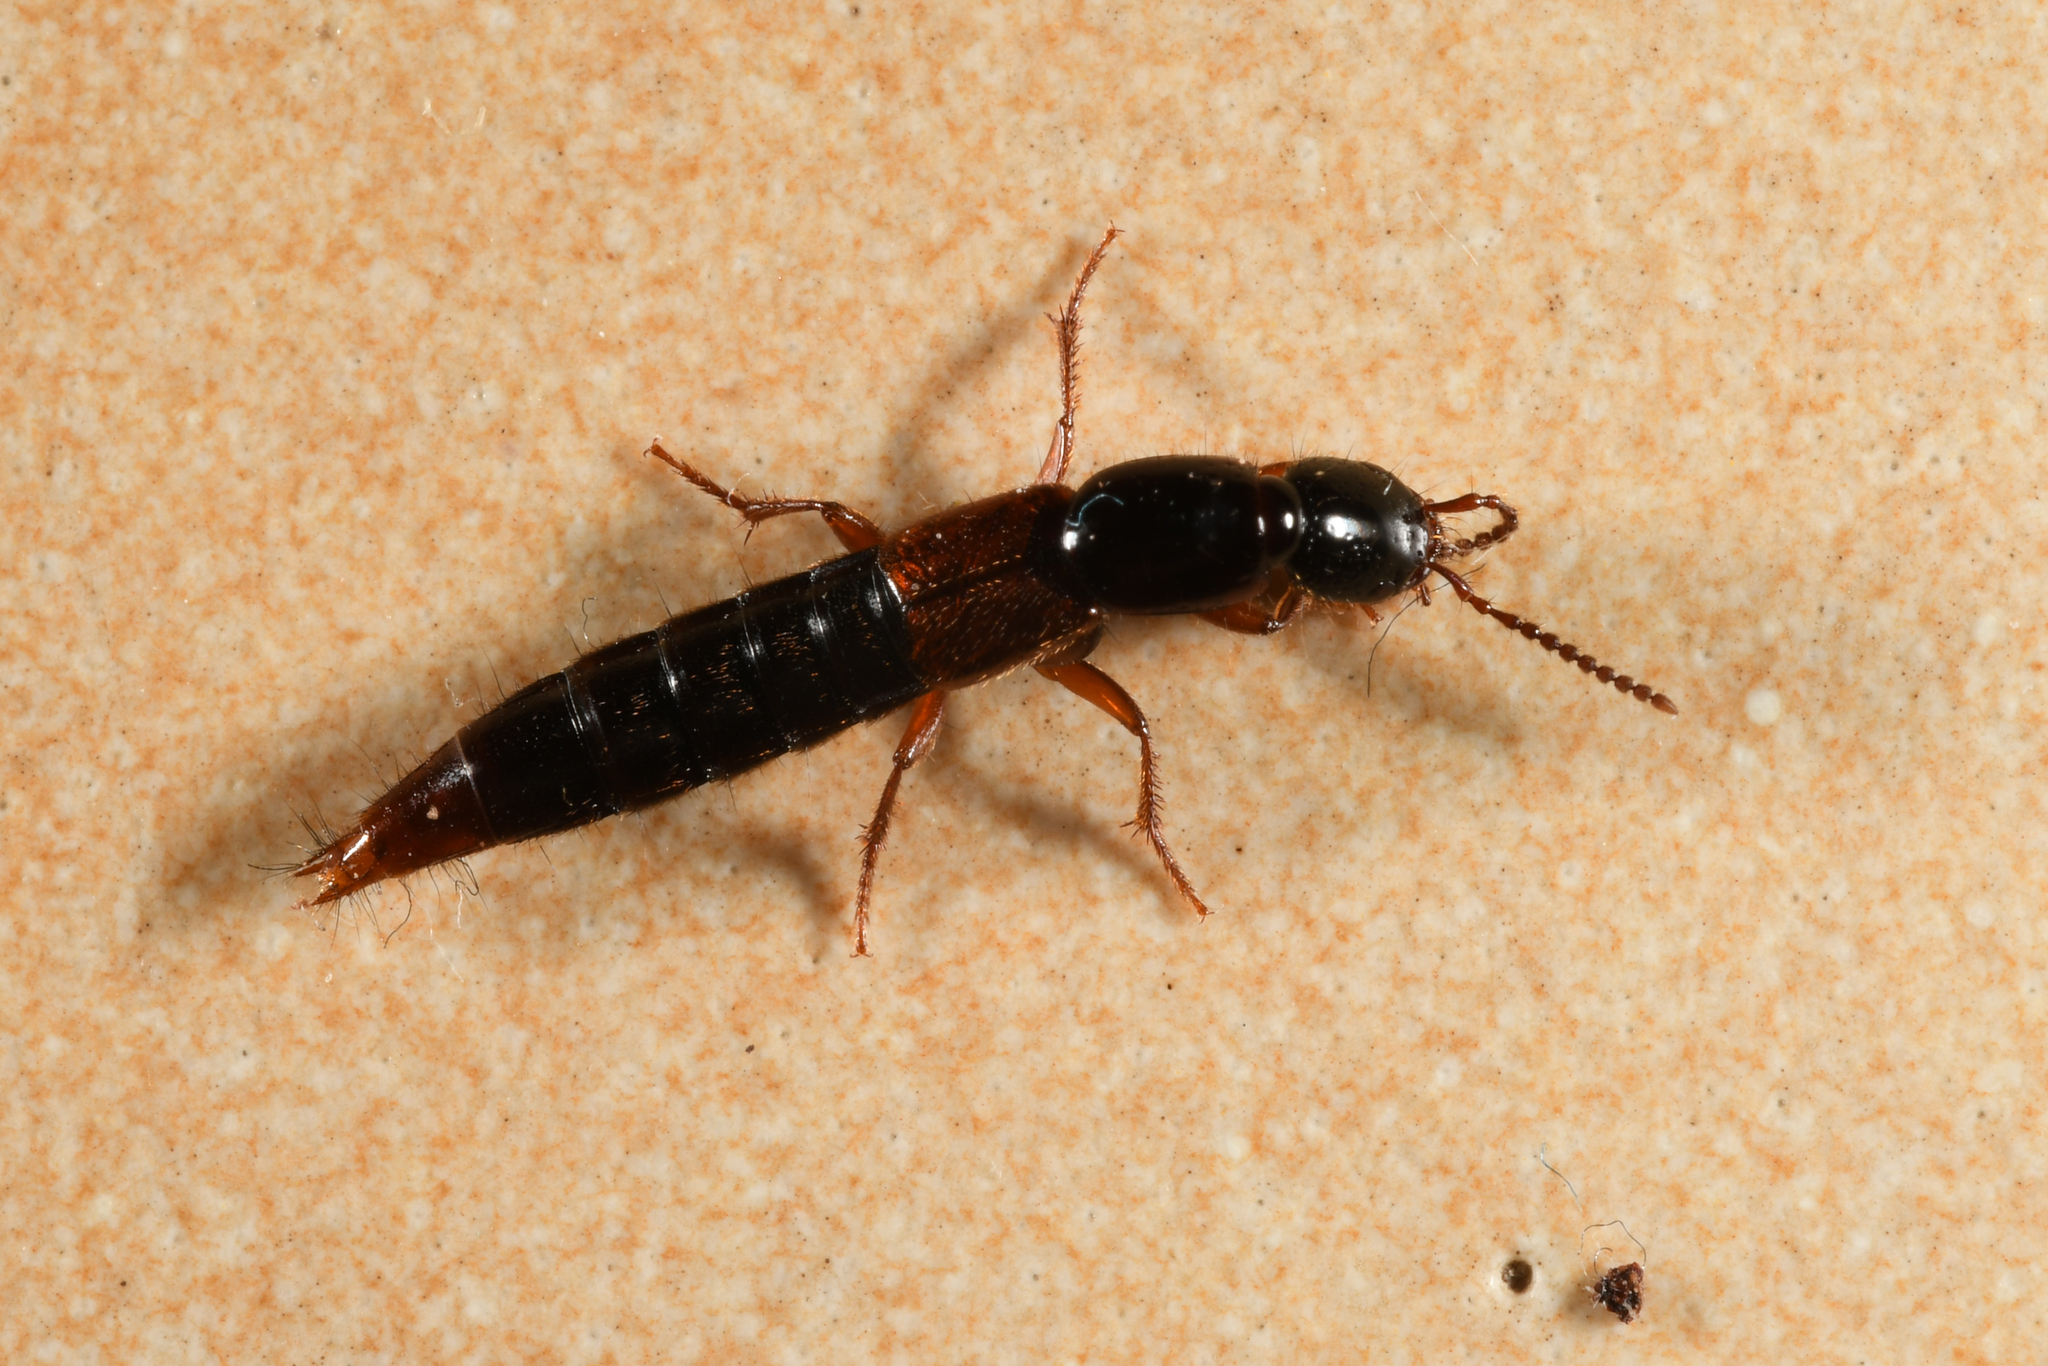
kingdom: Animalia
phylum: Arthropoda
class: Insecta
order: Coleoptera
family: Staphylinidae
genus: Othius
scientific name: Othius punctulatus
